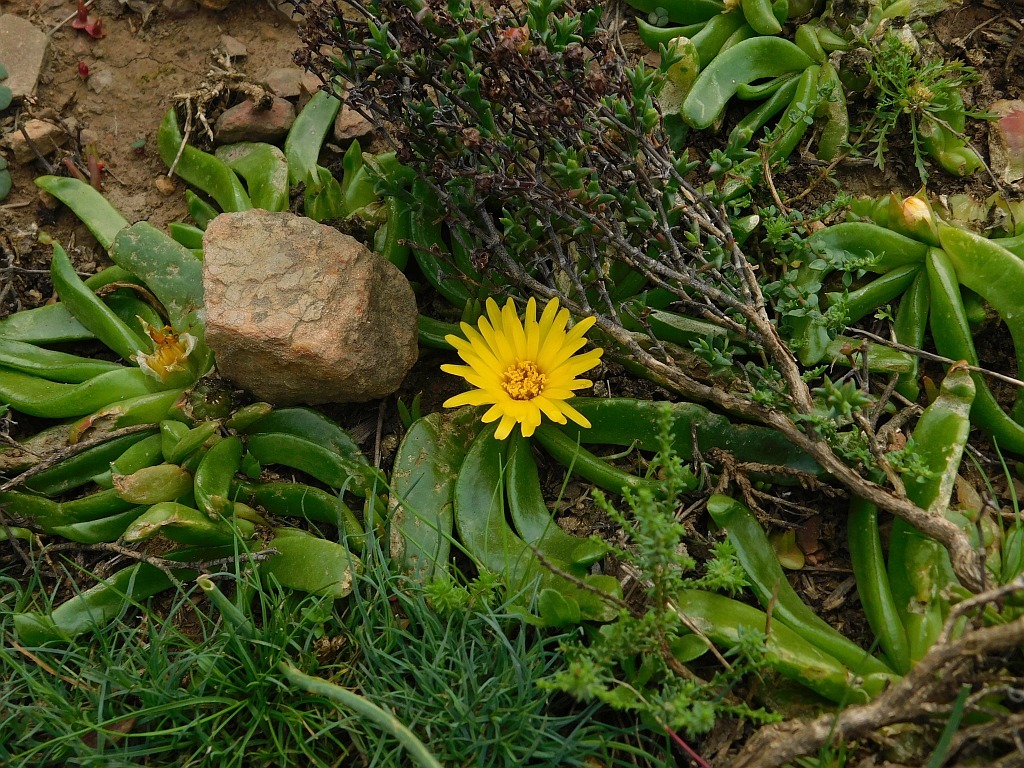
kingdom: Plantae
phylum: Tracheophyta
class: Magnoliopsida
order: Caryophyllales
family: Aizoaceae
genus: Glottiphyllum
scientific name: Glottiphyllum depressum
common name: Fig-marigold
